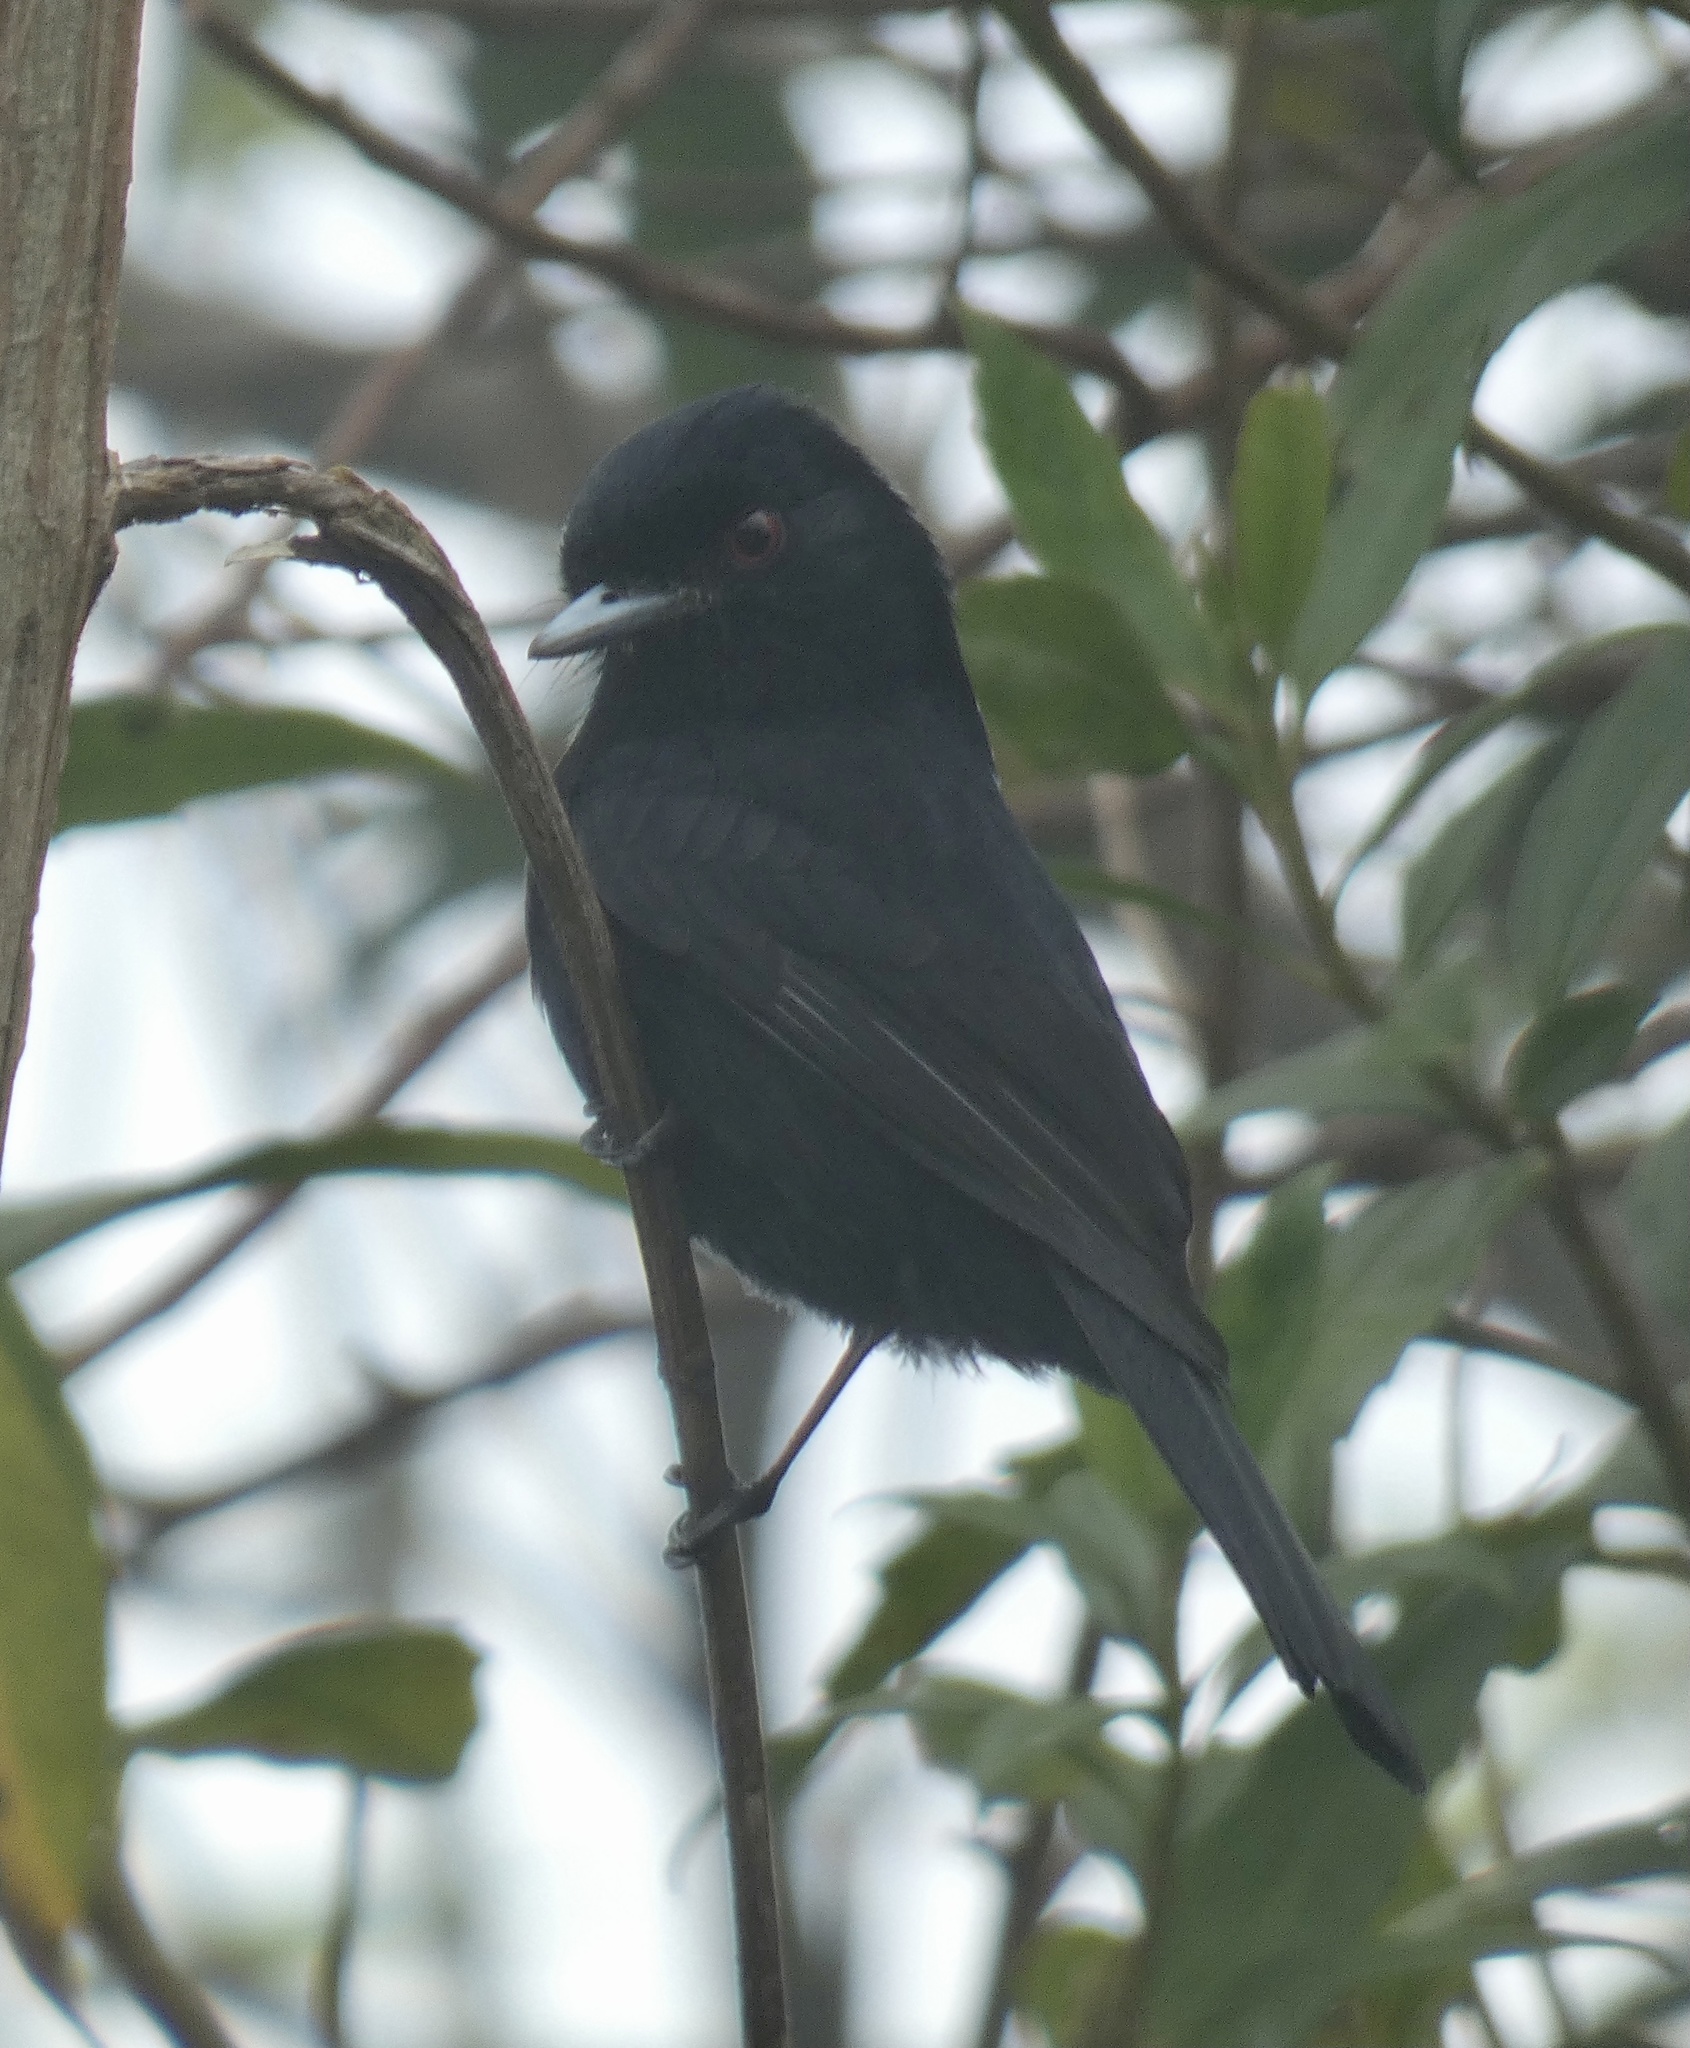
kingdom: Animalia
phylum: Chordata
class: Aves
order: Passeriformes
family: Tyrannidae
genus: Knipolegus
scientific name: Knipolegus cyanirostris
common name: Blue-billed black tyrant
